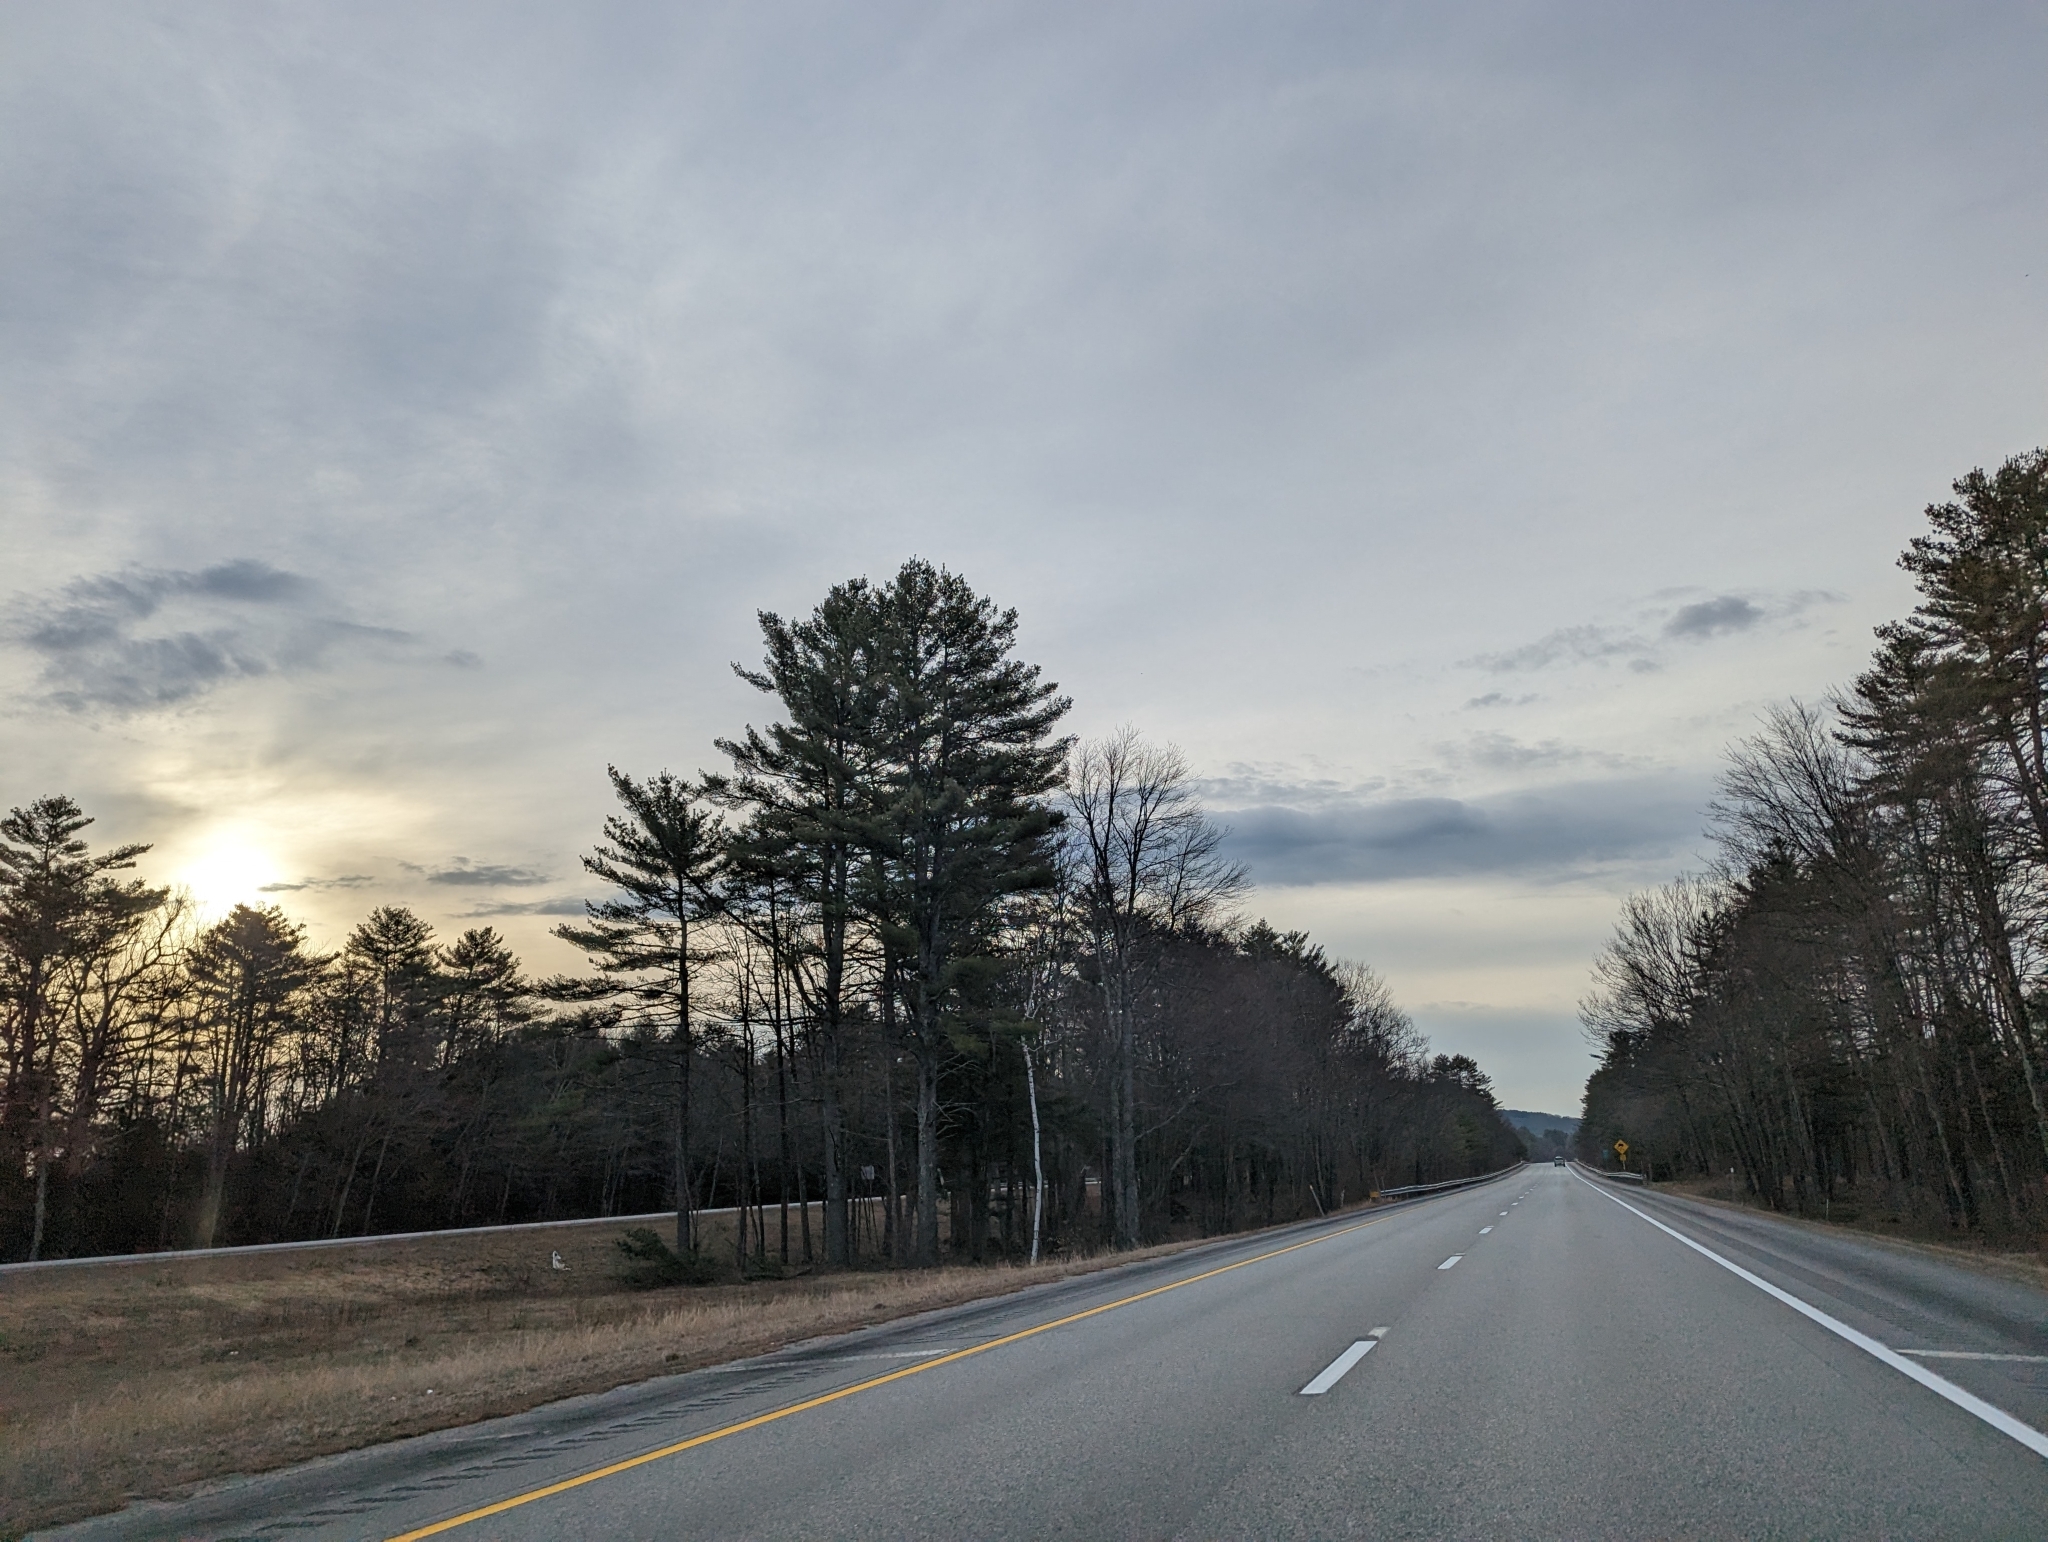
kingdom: Plantae
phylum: Tracheophyta
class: Pinopsida
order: Pinales
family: Pinaceae
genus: Pinus
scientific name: Pinus strobus
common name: Weymouth pine
